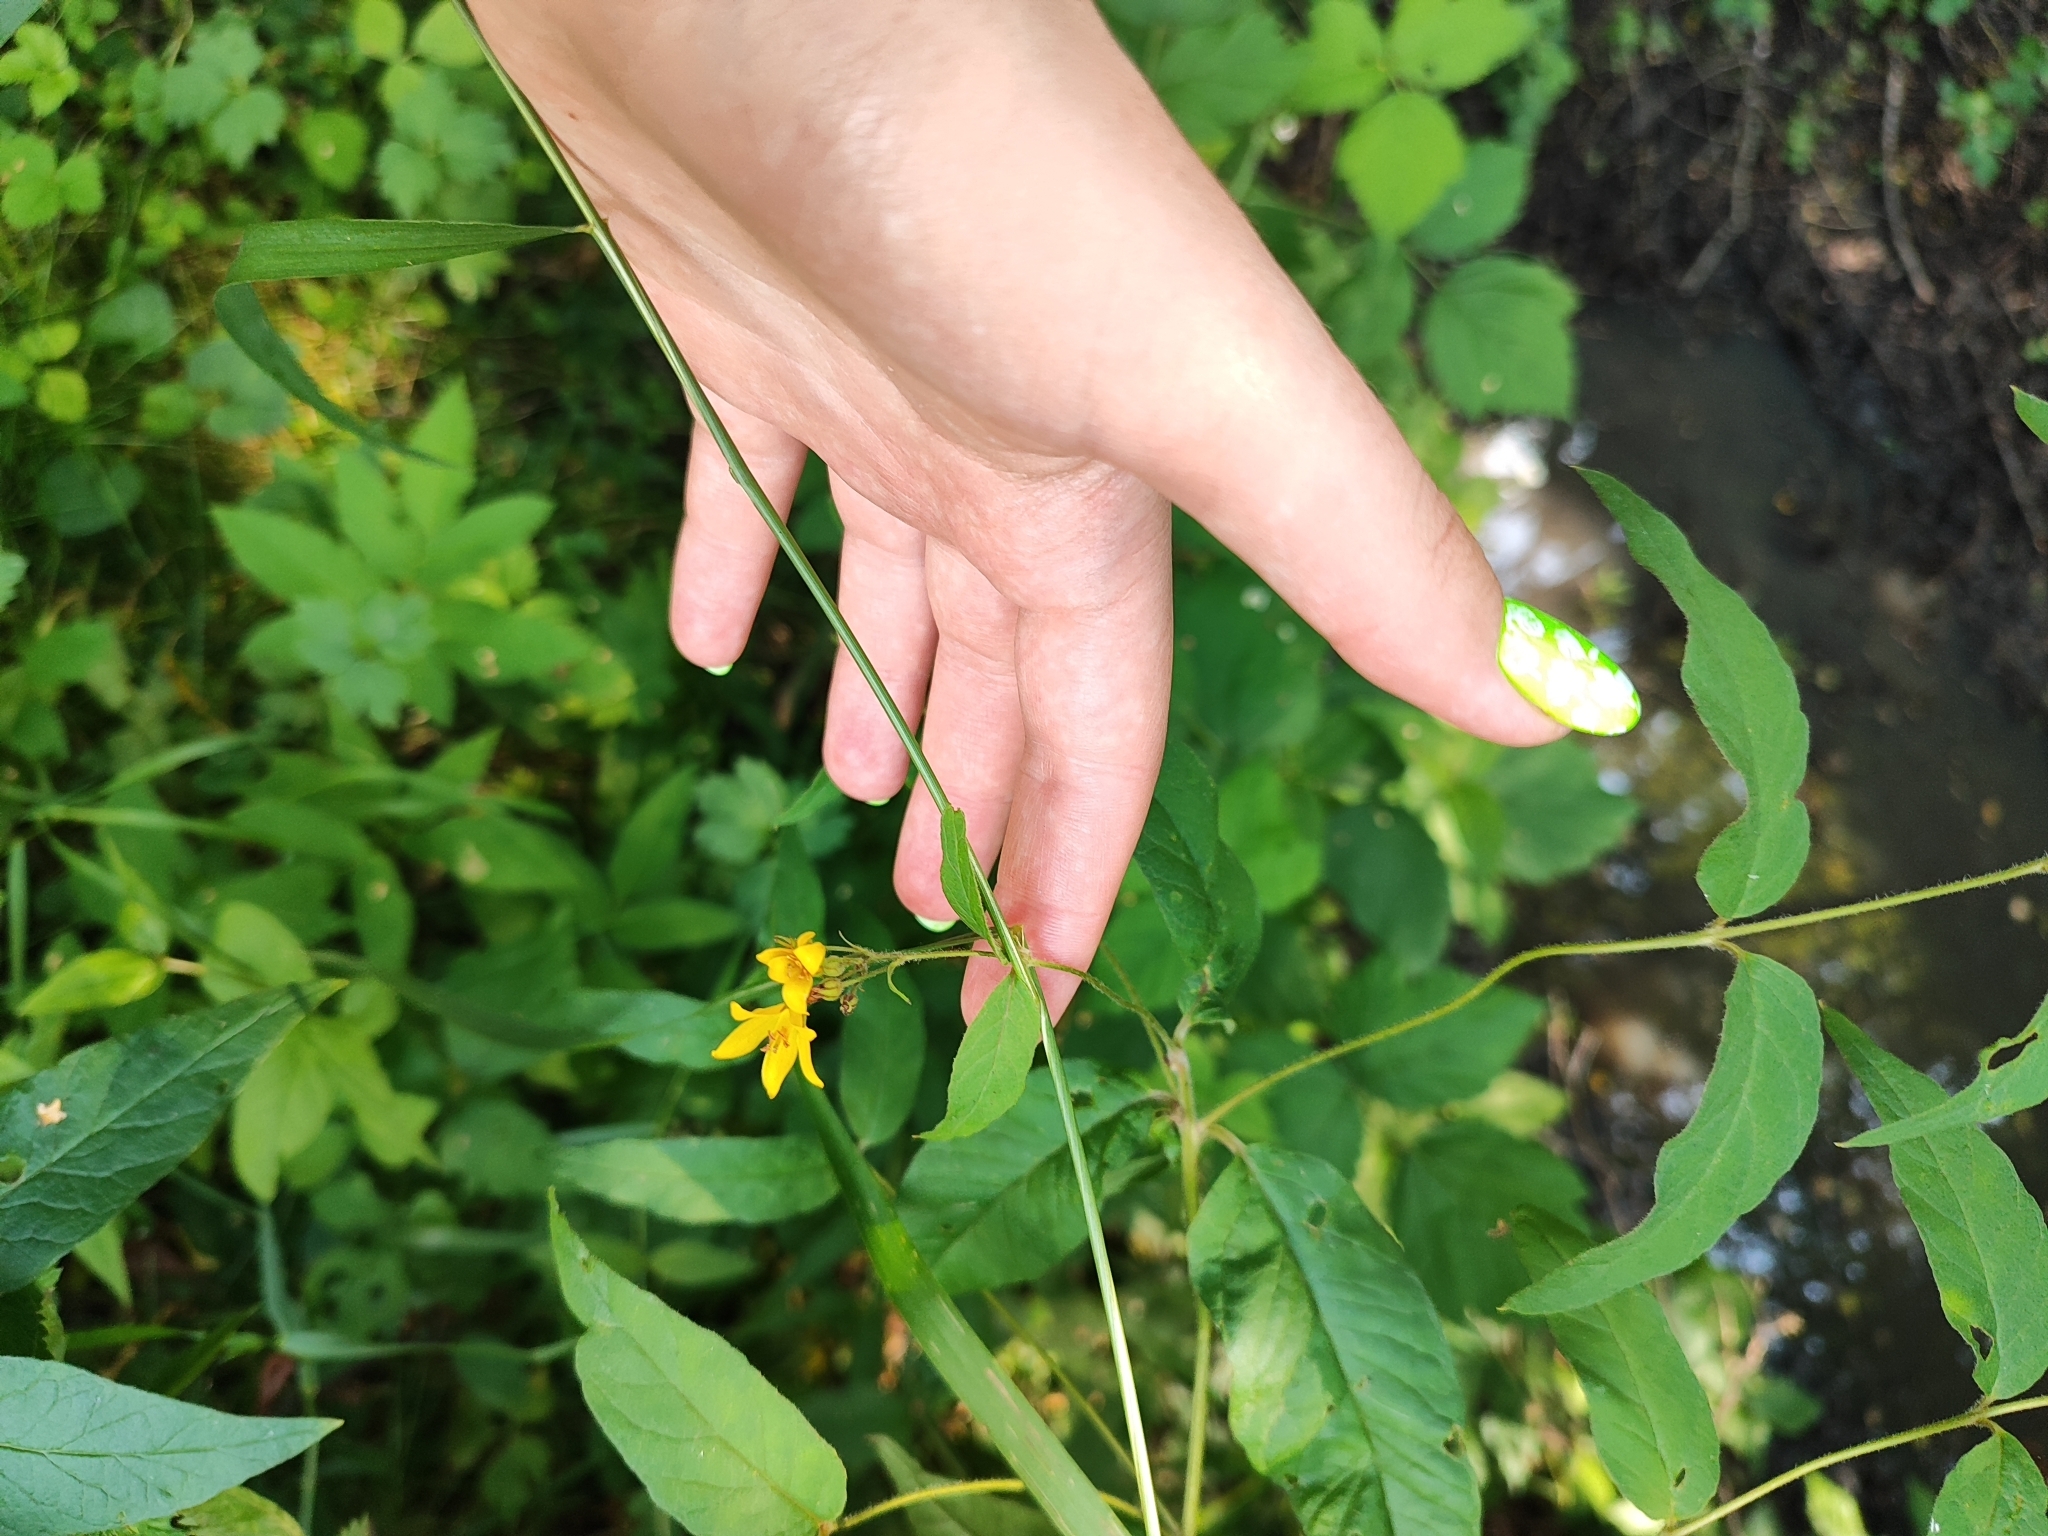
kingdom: Plantae
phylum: Tracheophyta
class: Magnoliopsida
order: Ericales
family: Primulaceae
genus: Lysimachia
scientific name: Lysimachia vulgaris
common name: Yellow loosestrife
